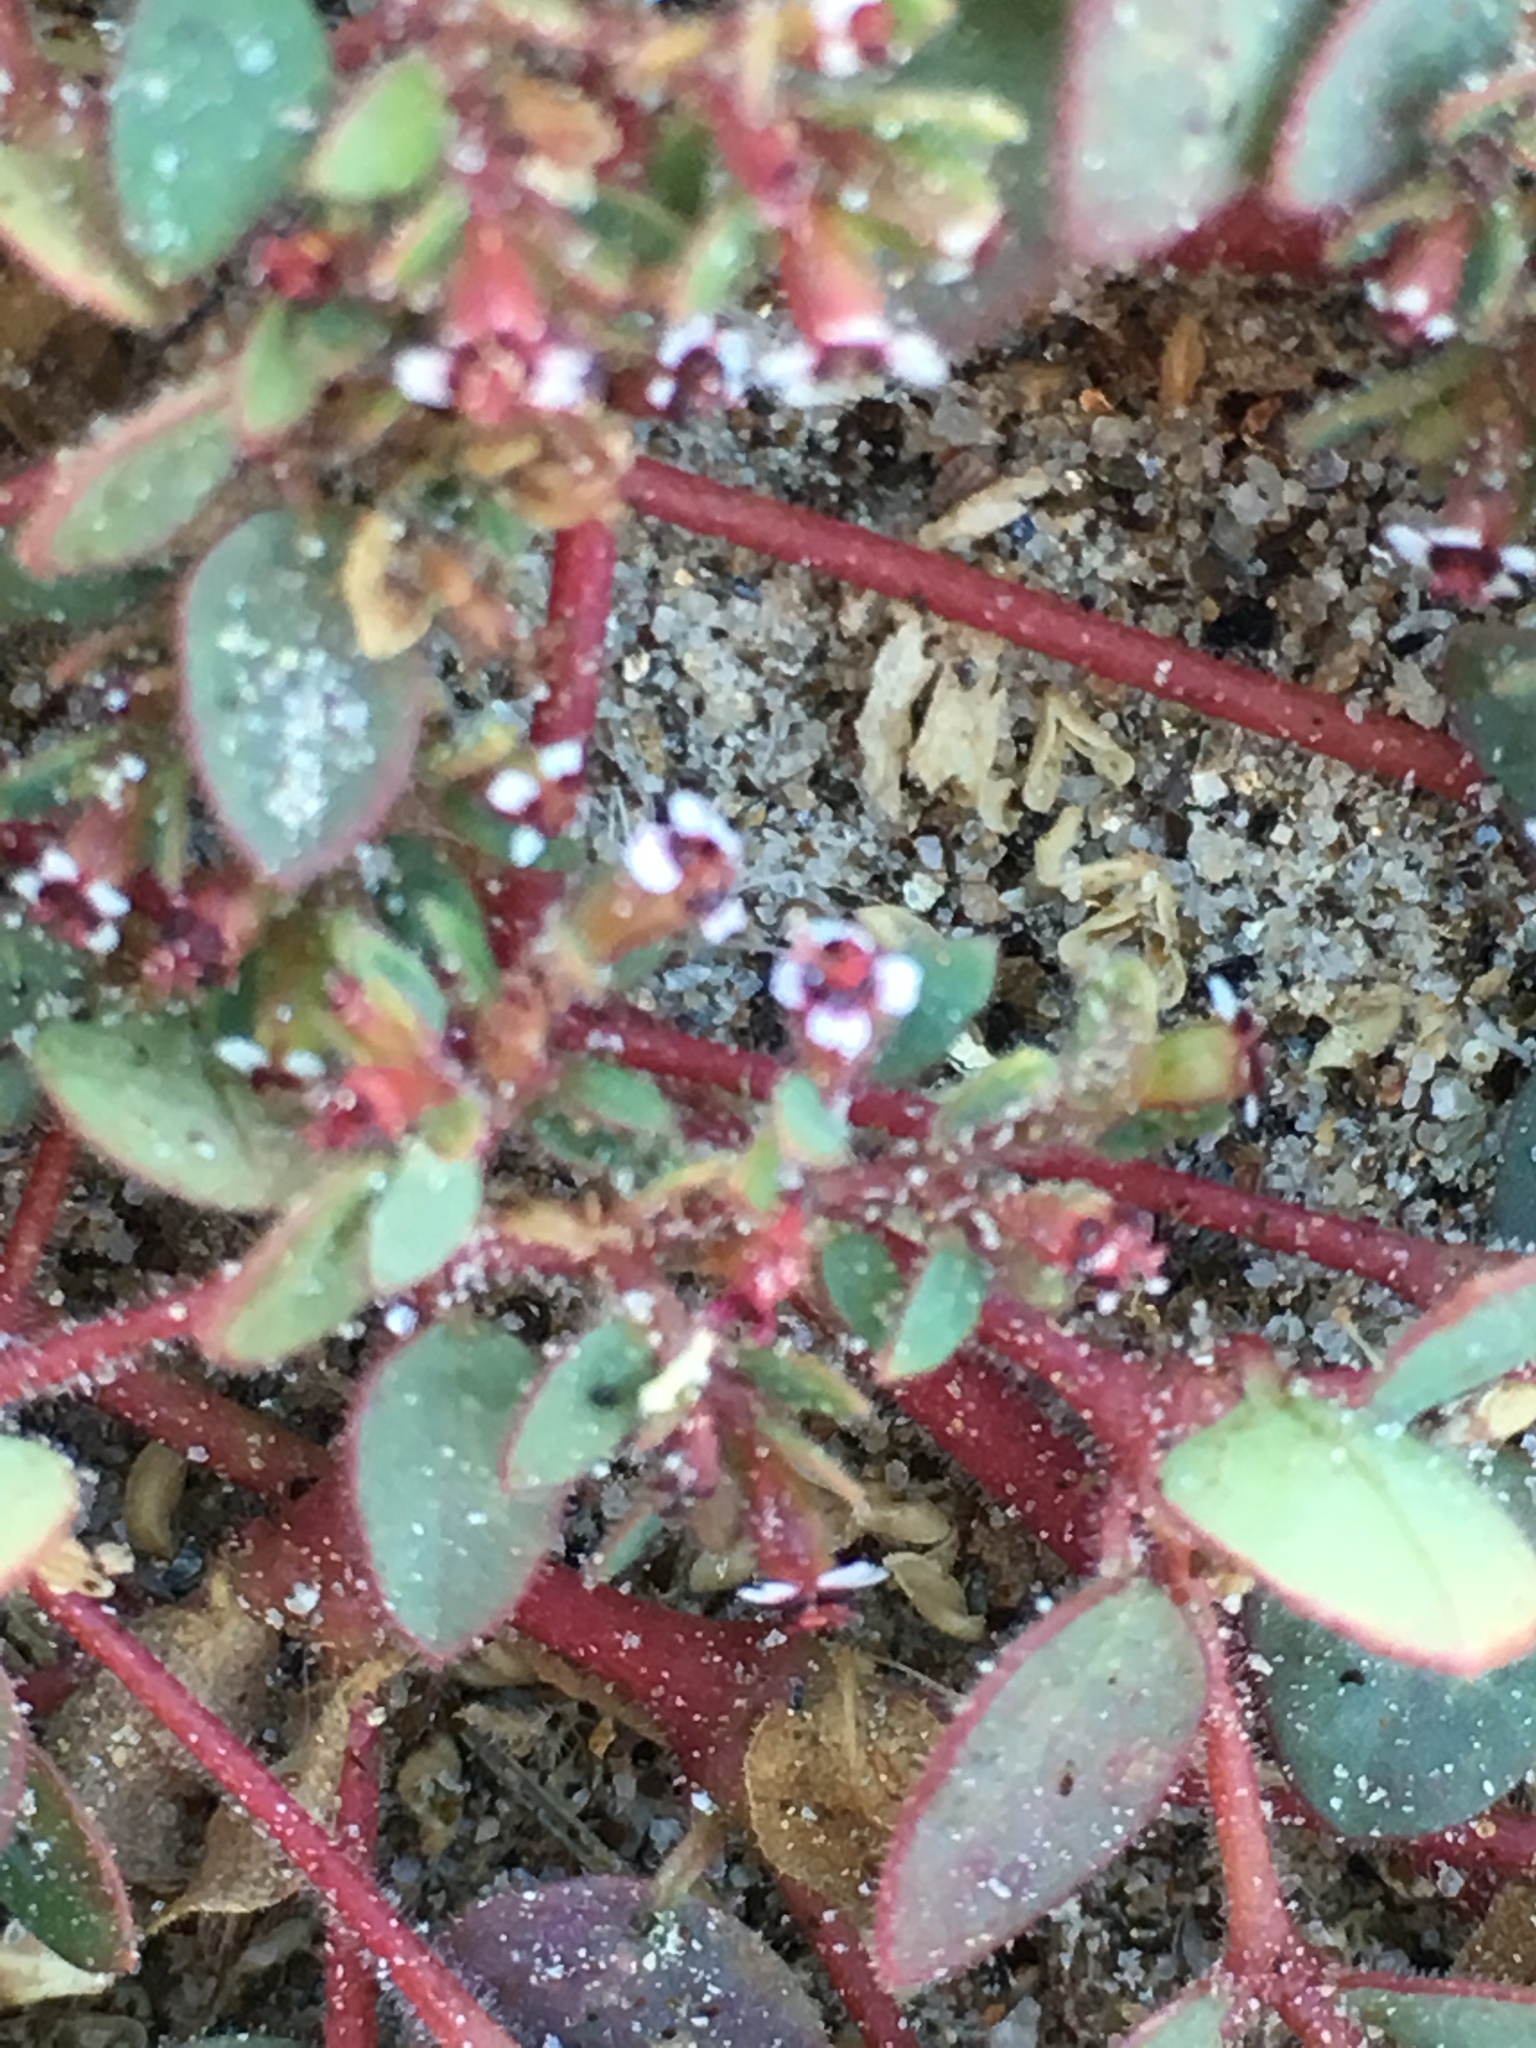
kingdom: Plantae
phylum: Tracheophyta
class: Magnoliopsida
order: Malpighiales
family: Euphorbiaceae
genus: Euphorbia
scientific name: Euphorbia arizonica
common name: Arizona spurge
